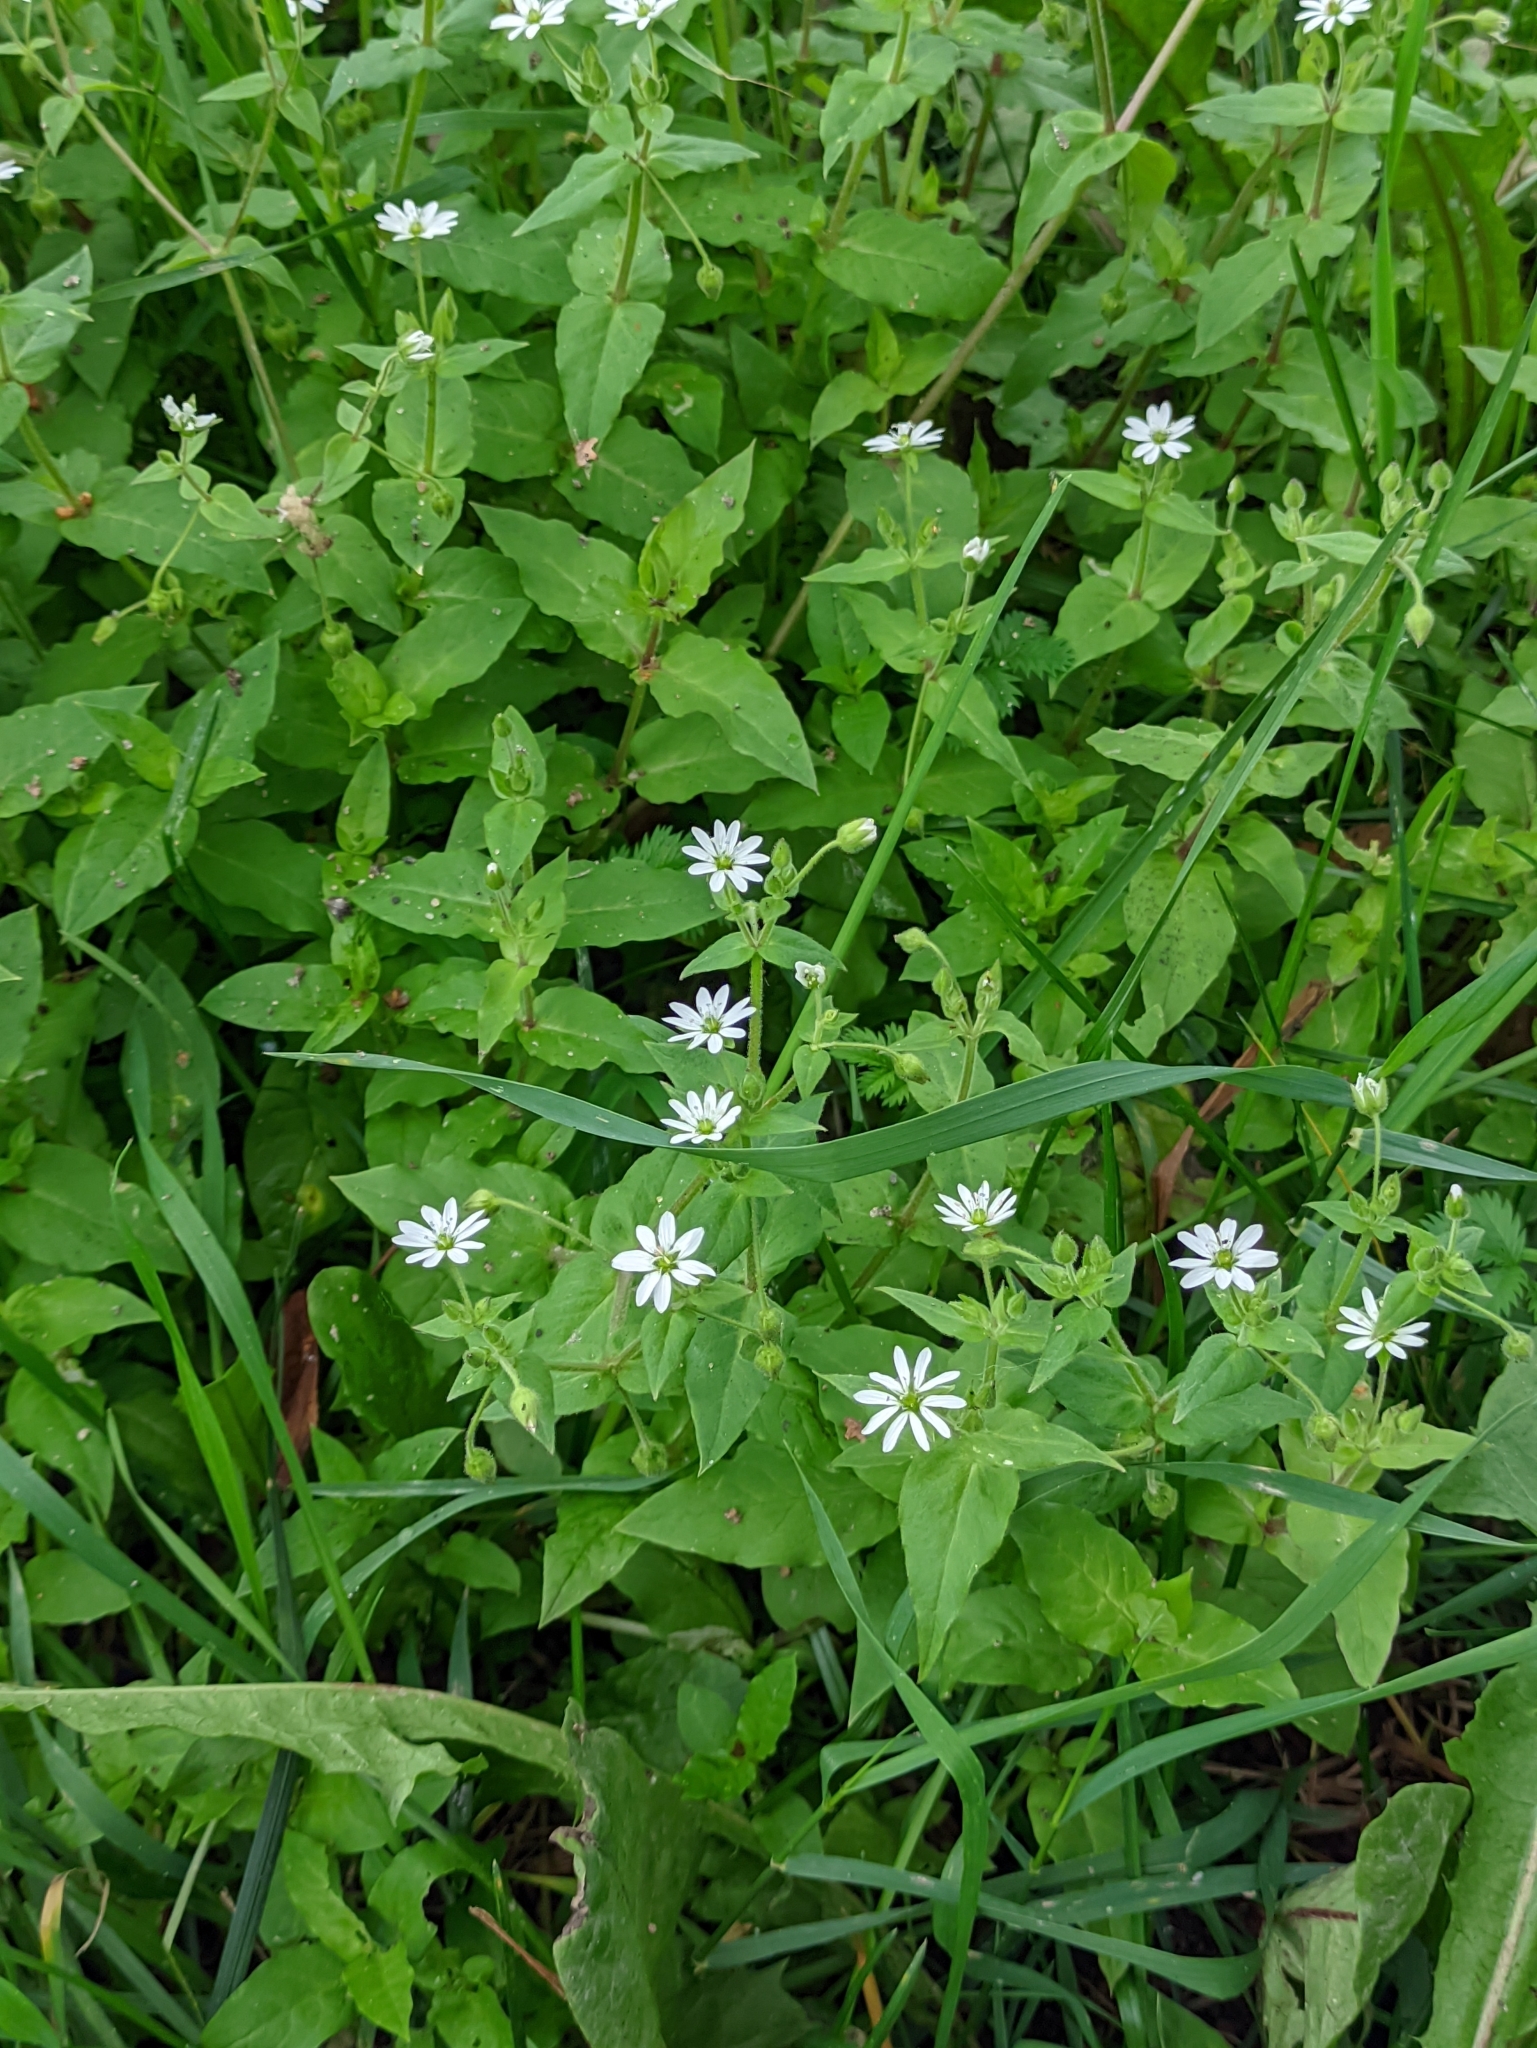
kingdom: Plantae
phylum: Tracheophyta
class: Magnoliopsida
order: Caryophyllales
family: Caryophyllaceae
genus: Stellaria
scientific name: Stellaria aquatica
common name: Water chickweed
